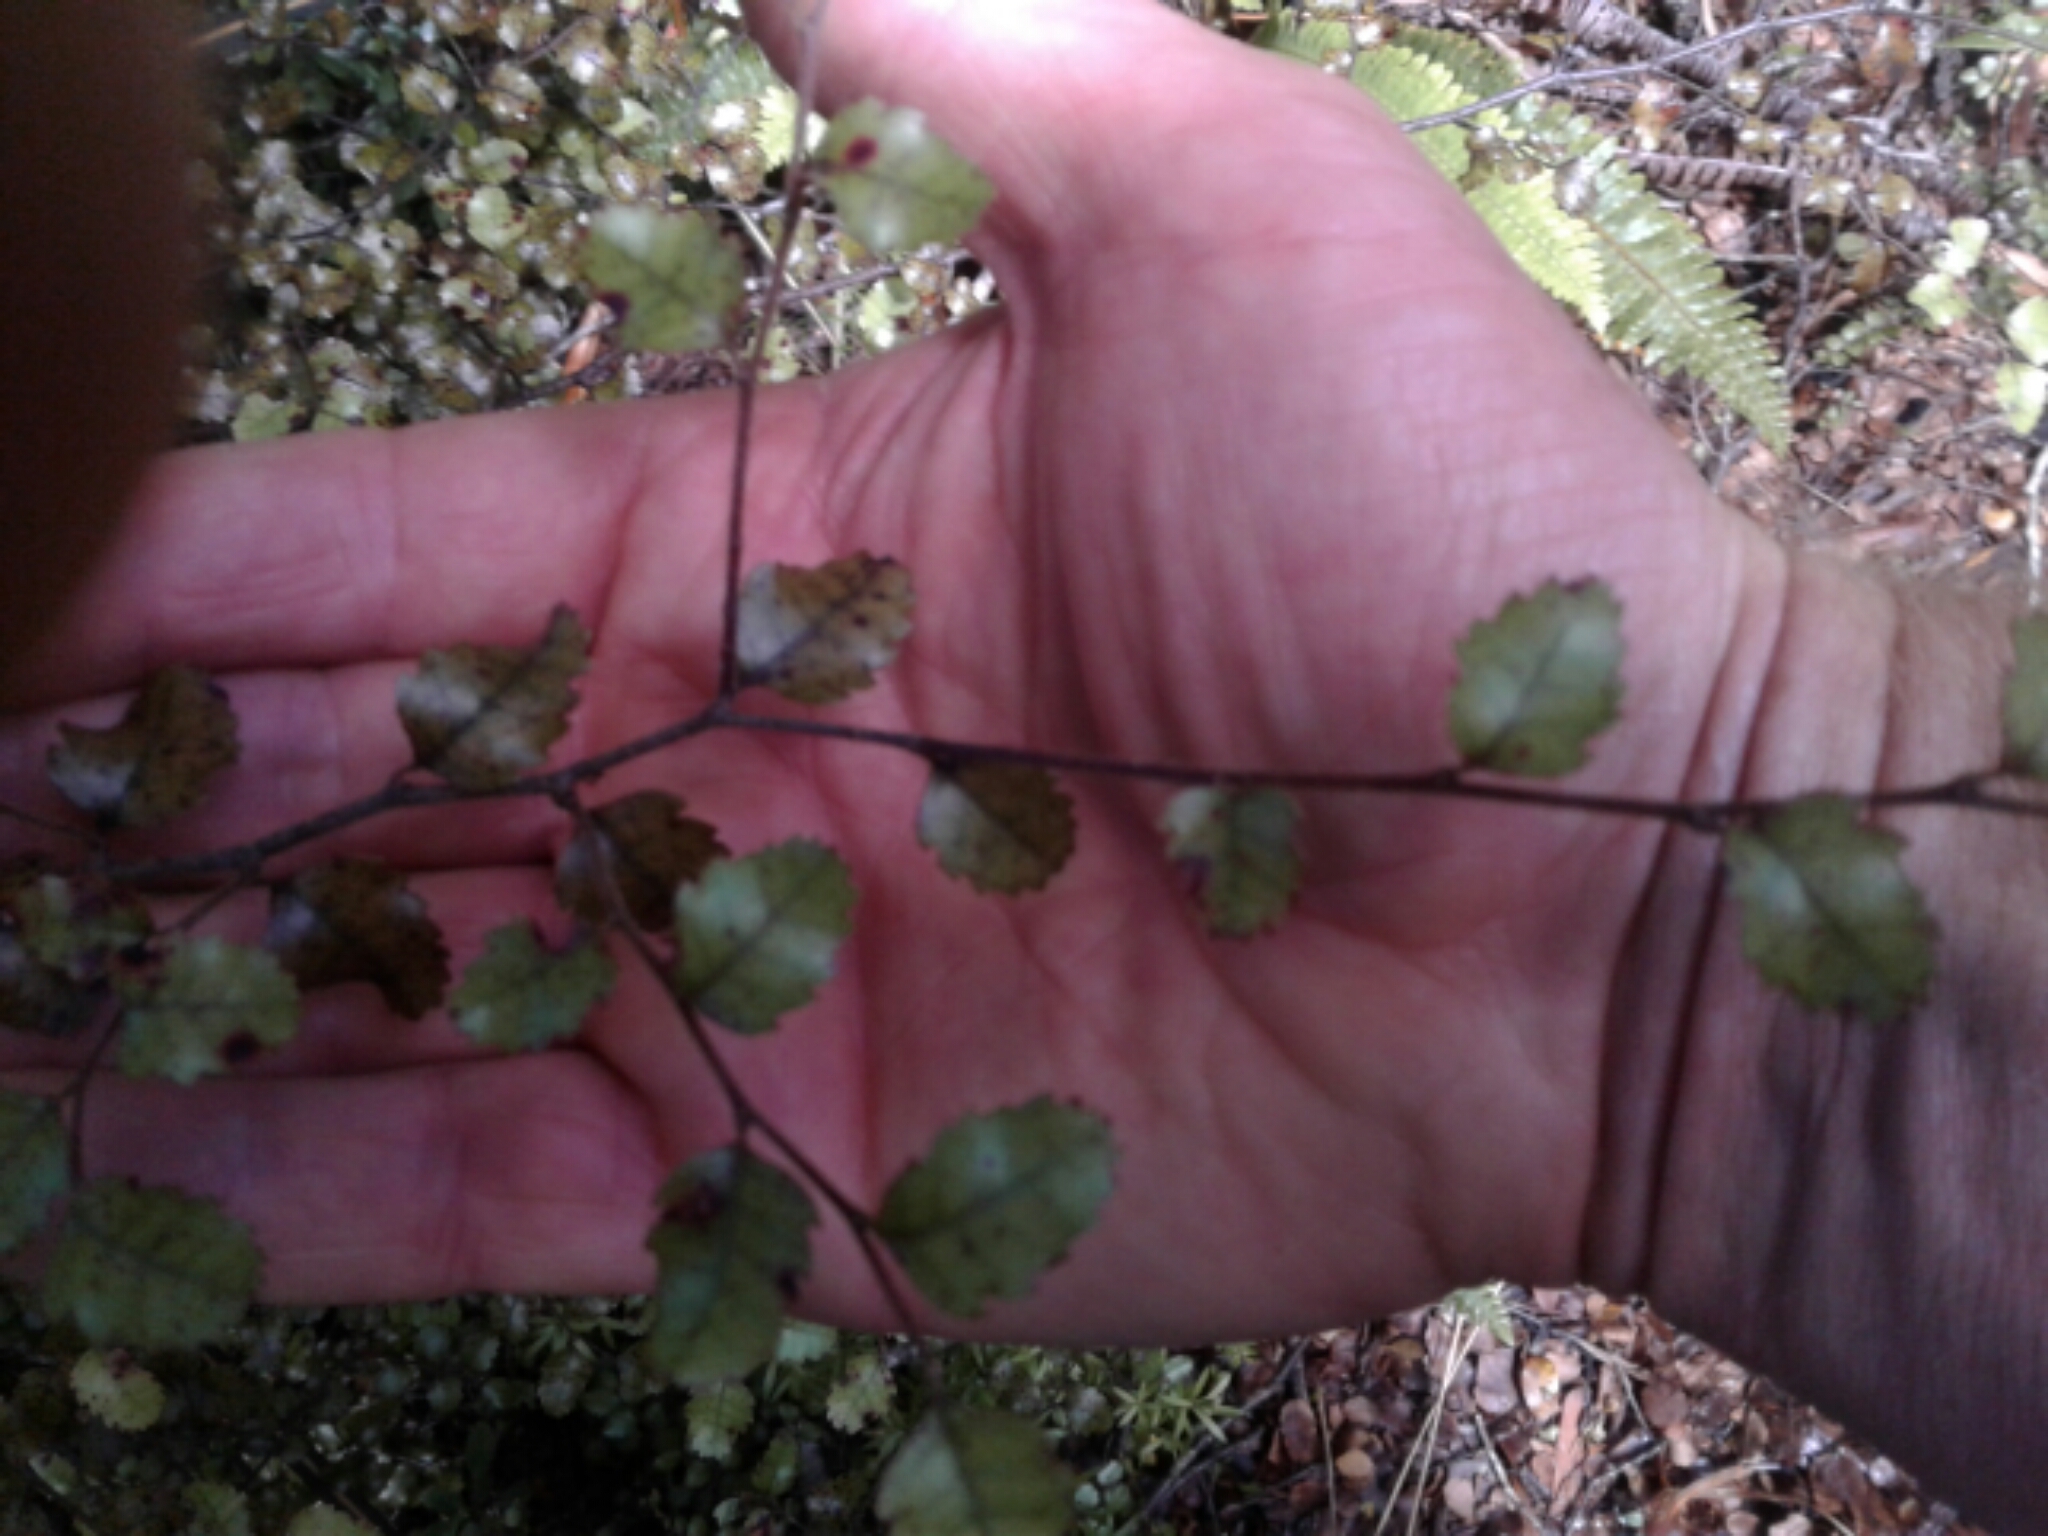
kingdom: Plantae
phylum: Tracheophyta
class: Magnoliopsida
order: Fagales
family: Nothofagaceae
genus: Nothofagus
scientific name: Nothofagus
